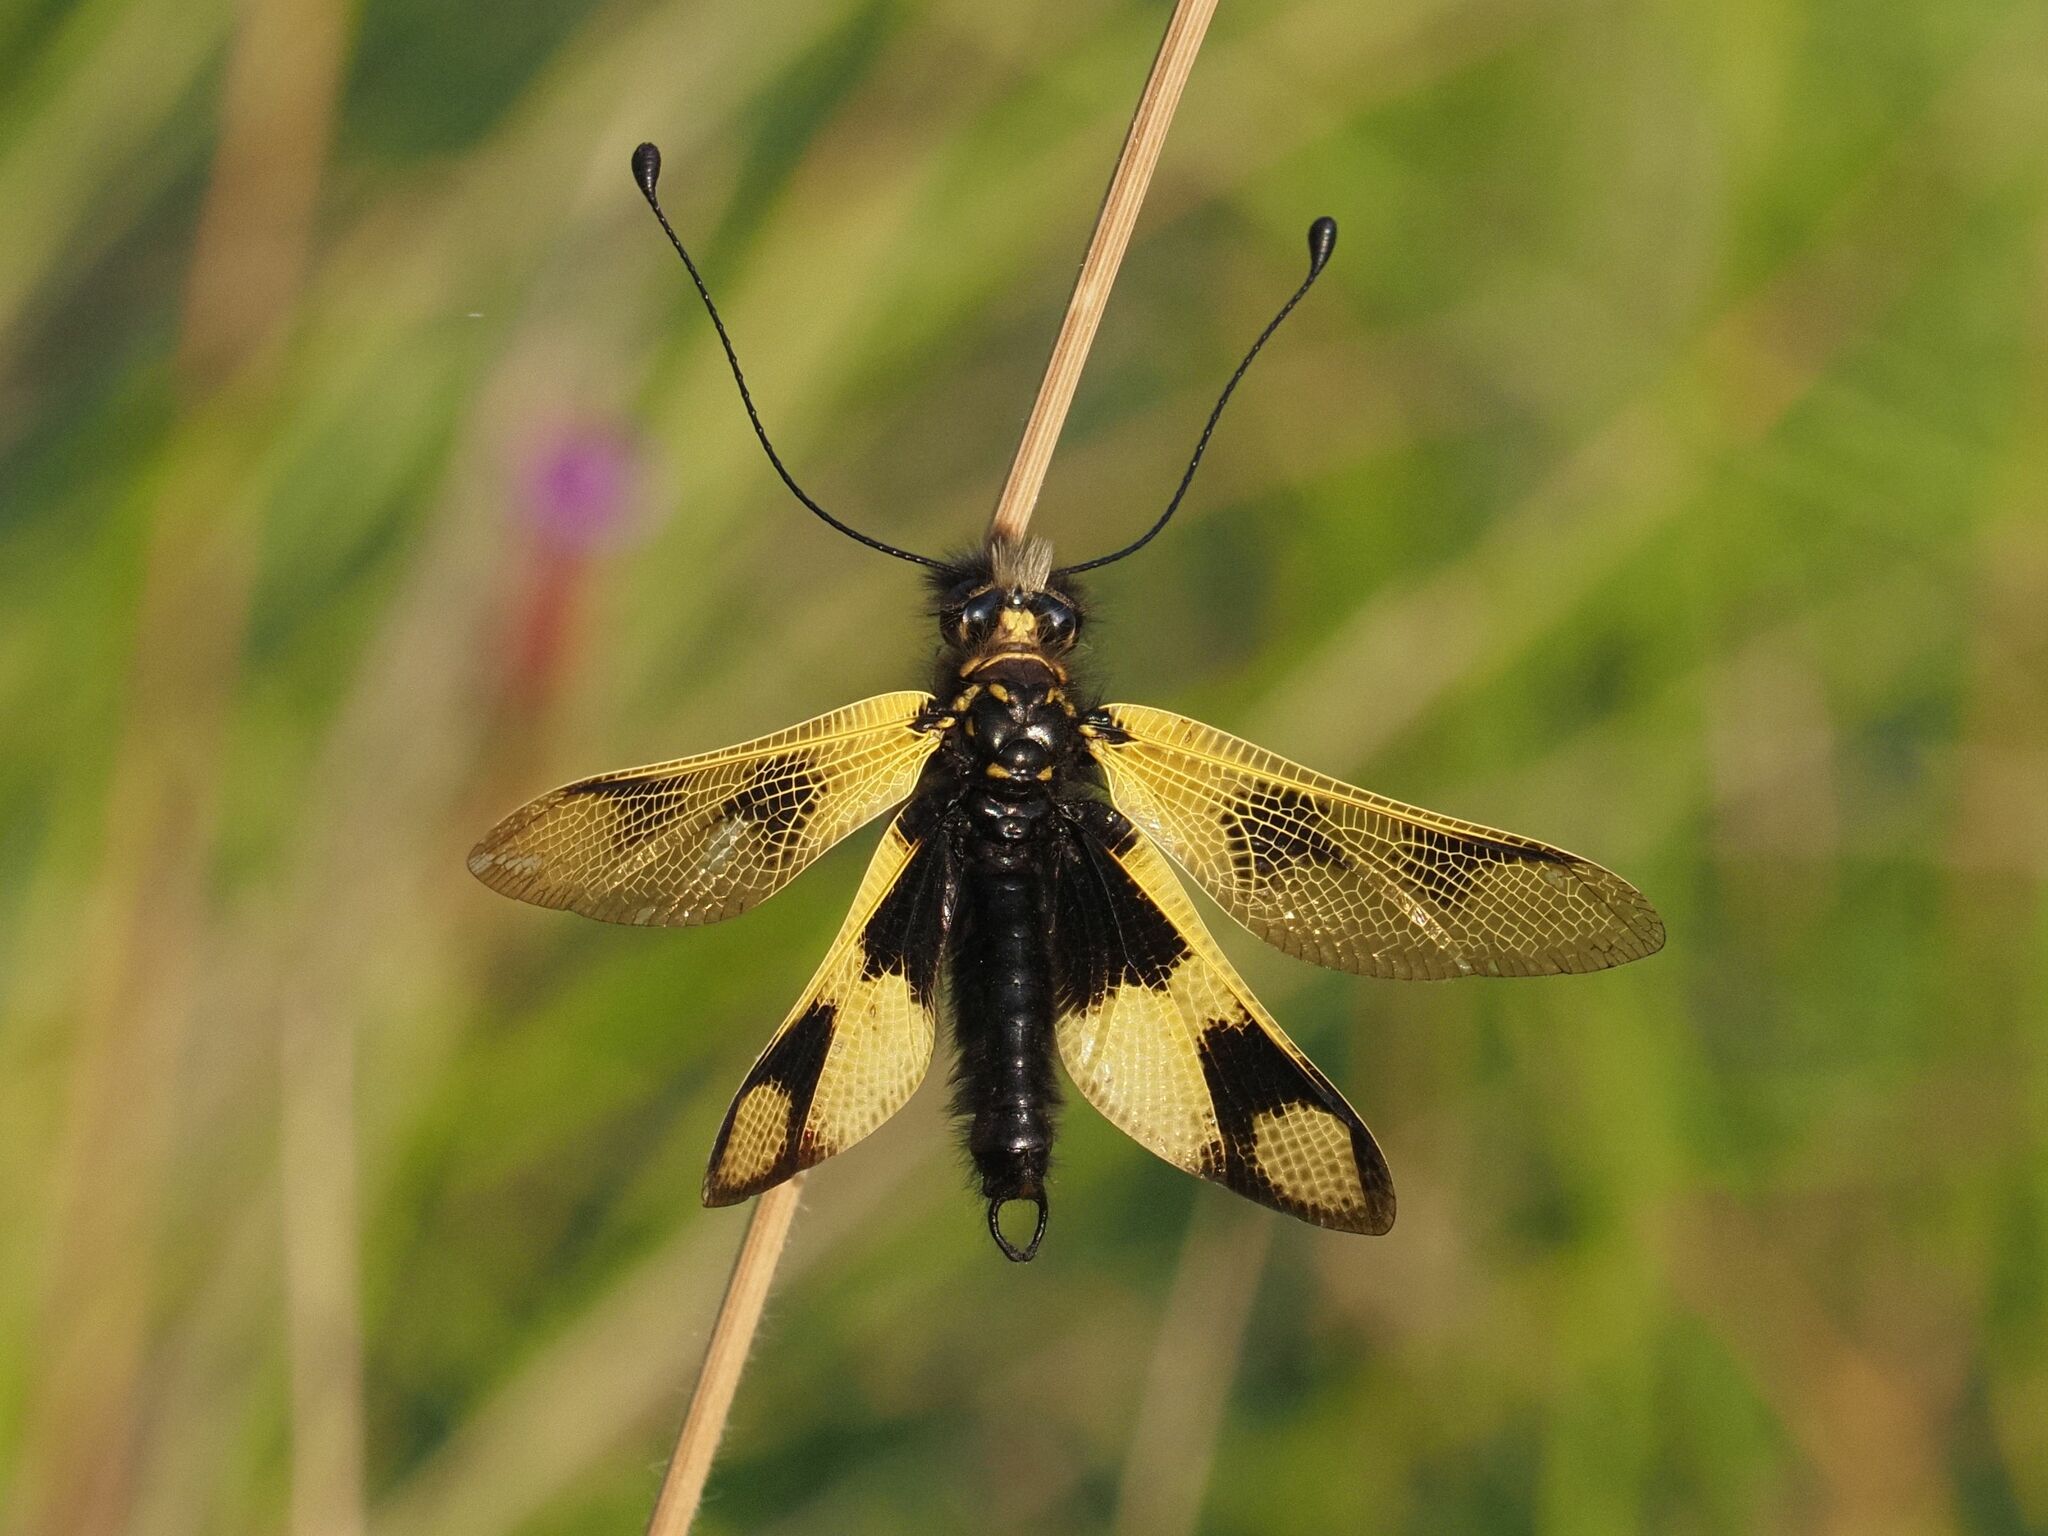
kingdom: Animalia
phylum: Arthropoda
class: Insecta
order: Neuroptera
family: Ascalaphidae
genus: Libelloides
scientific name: Libelloides macaronius
